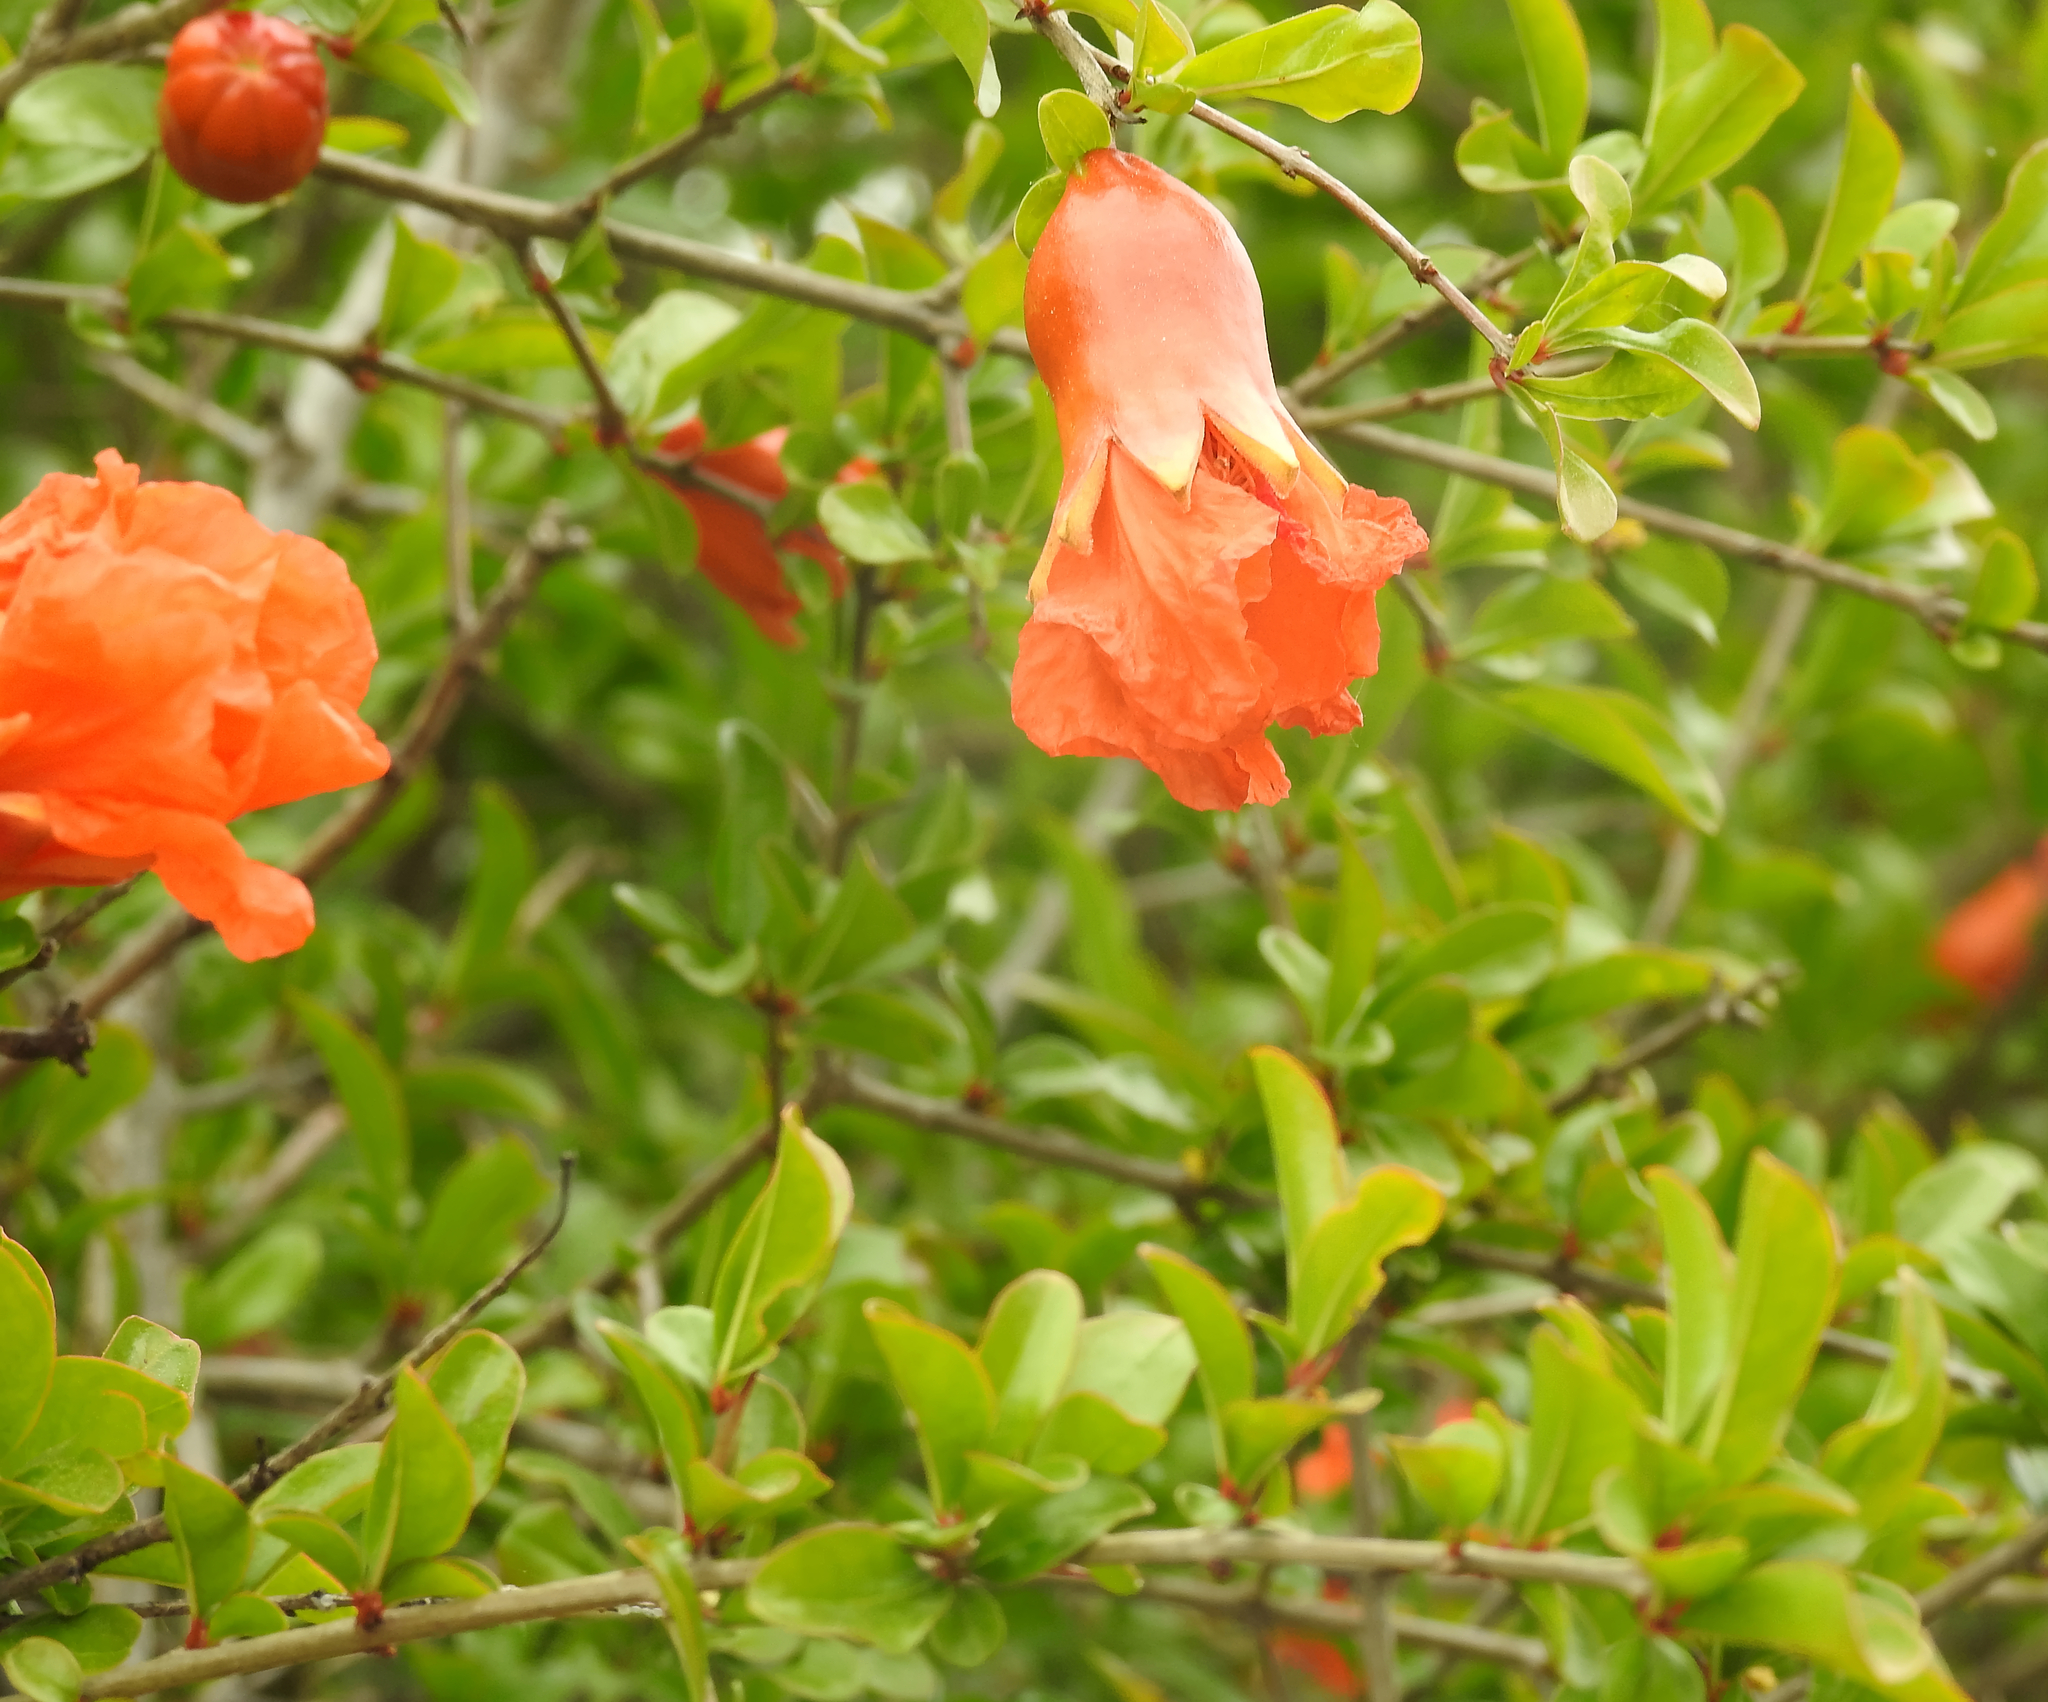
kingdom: Plantae
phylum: Tracheophyta
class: Magnoliopsida
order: Myrtales
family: Lythraceae
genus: Punica
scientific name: Punica granatum
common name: Pomegranate
